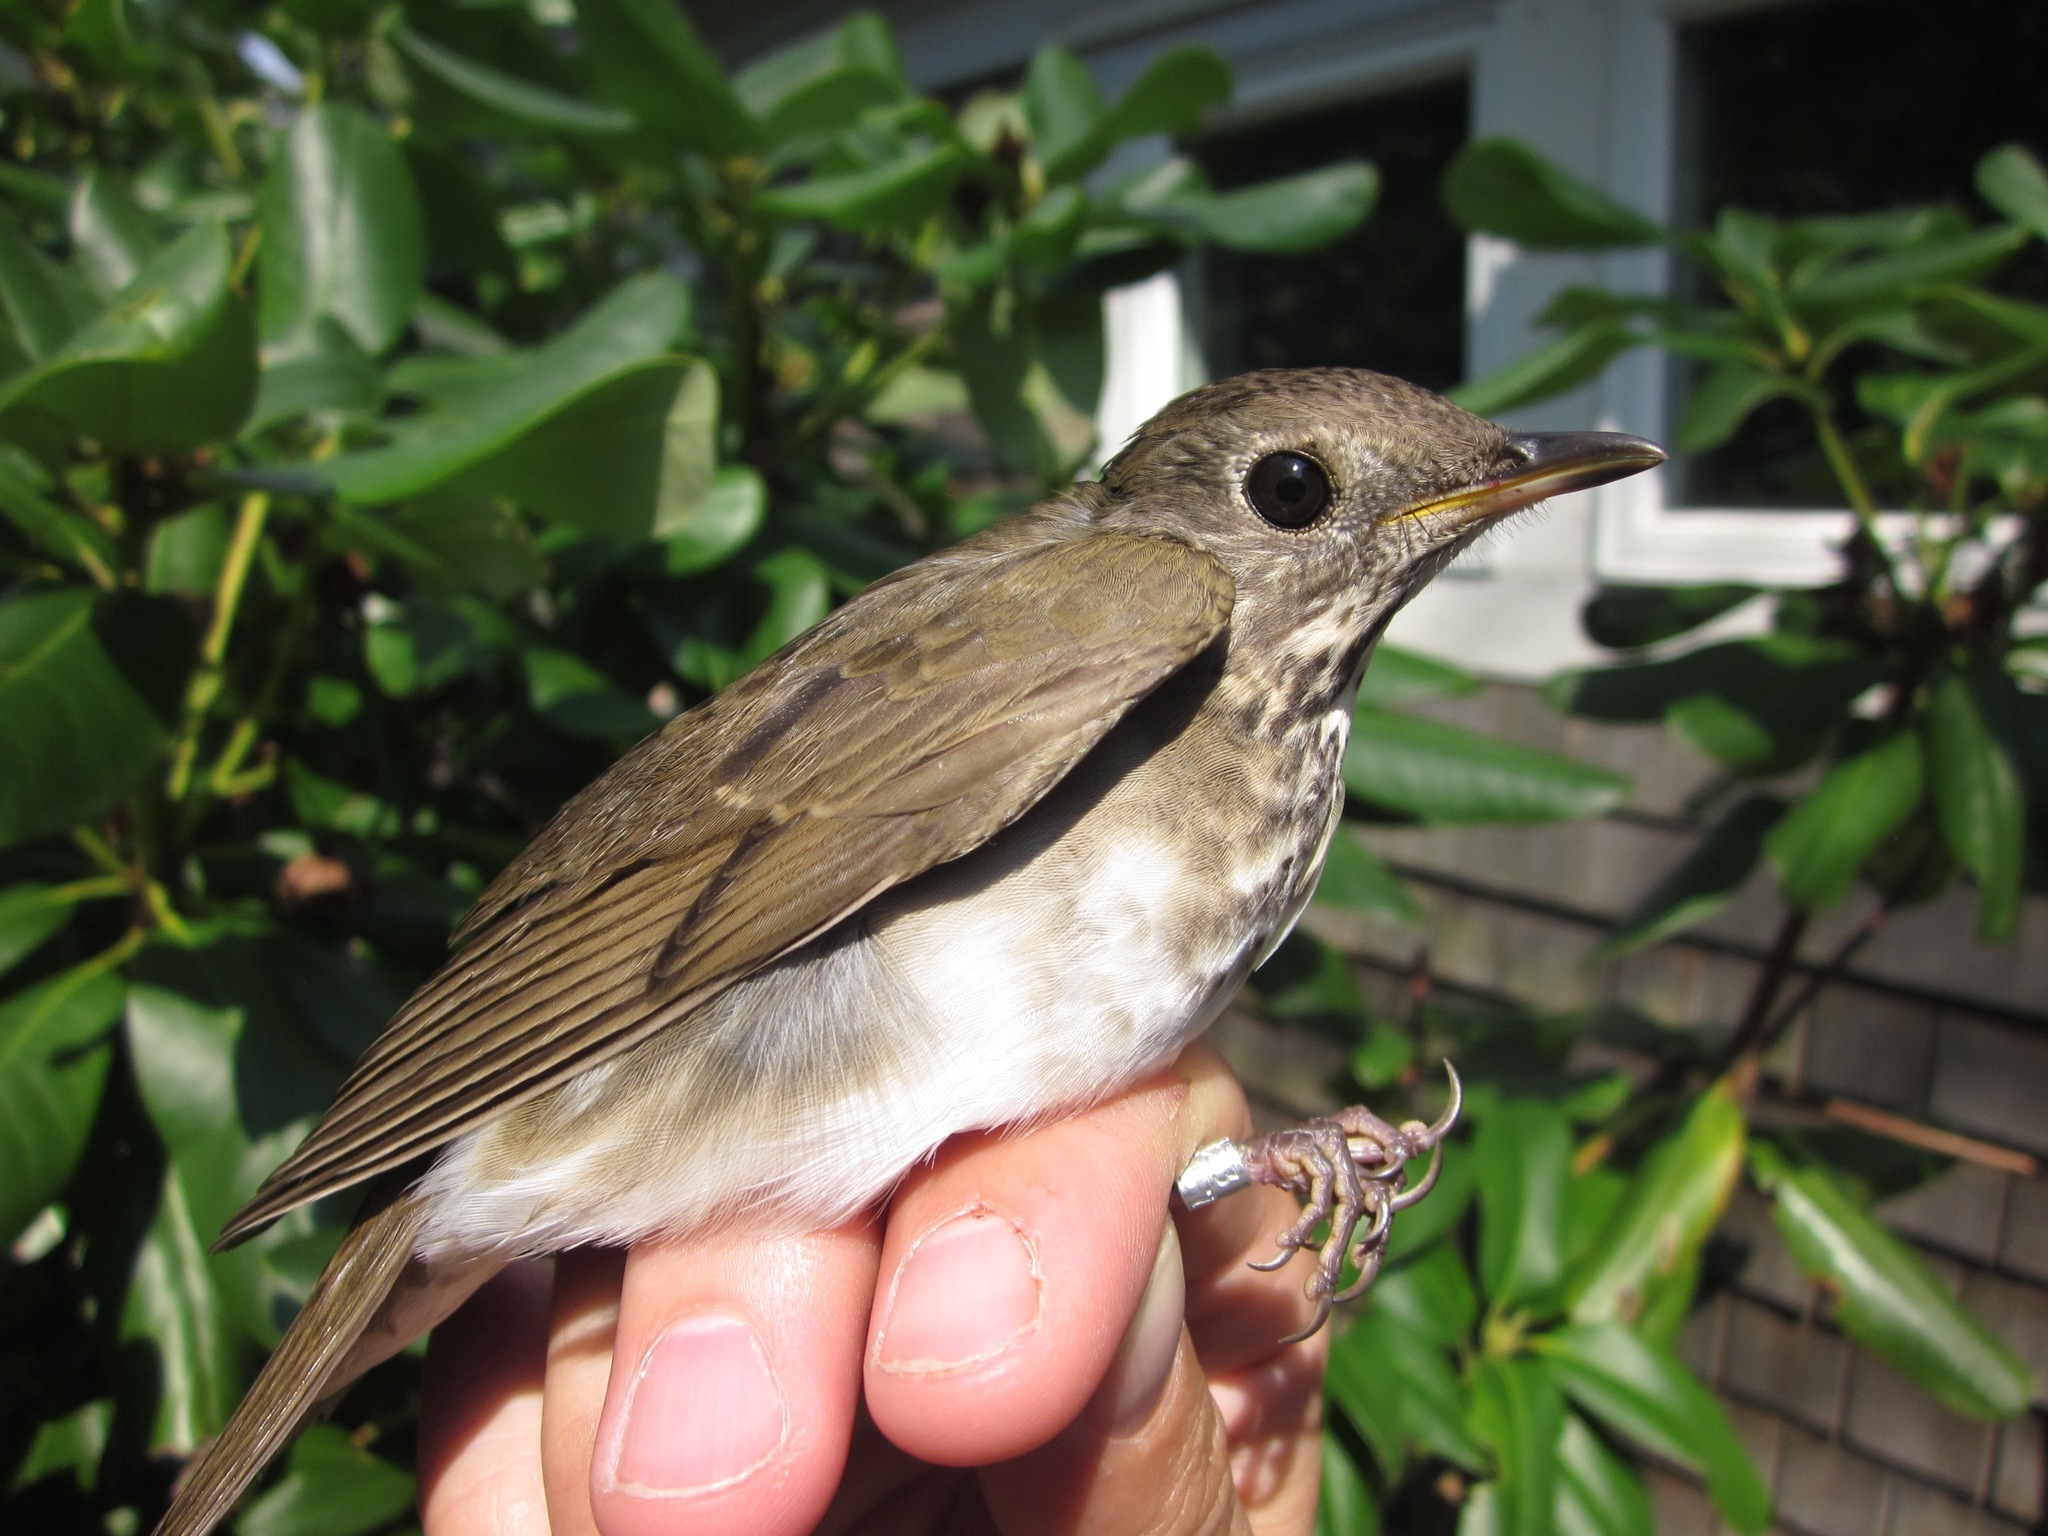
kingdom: Animalia
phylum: Chordata
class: Aves
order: Passeriformes
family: Turdidae
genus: Catharus
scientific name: Catharus minimus
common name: Grey-cheeked thrush
